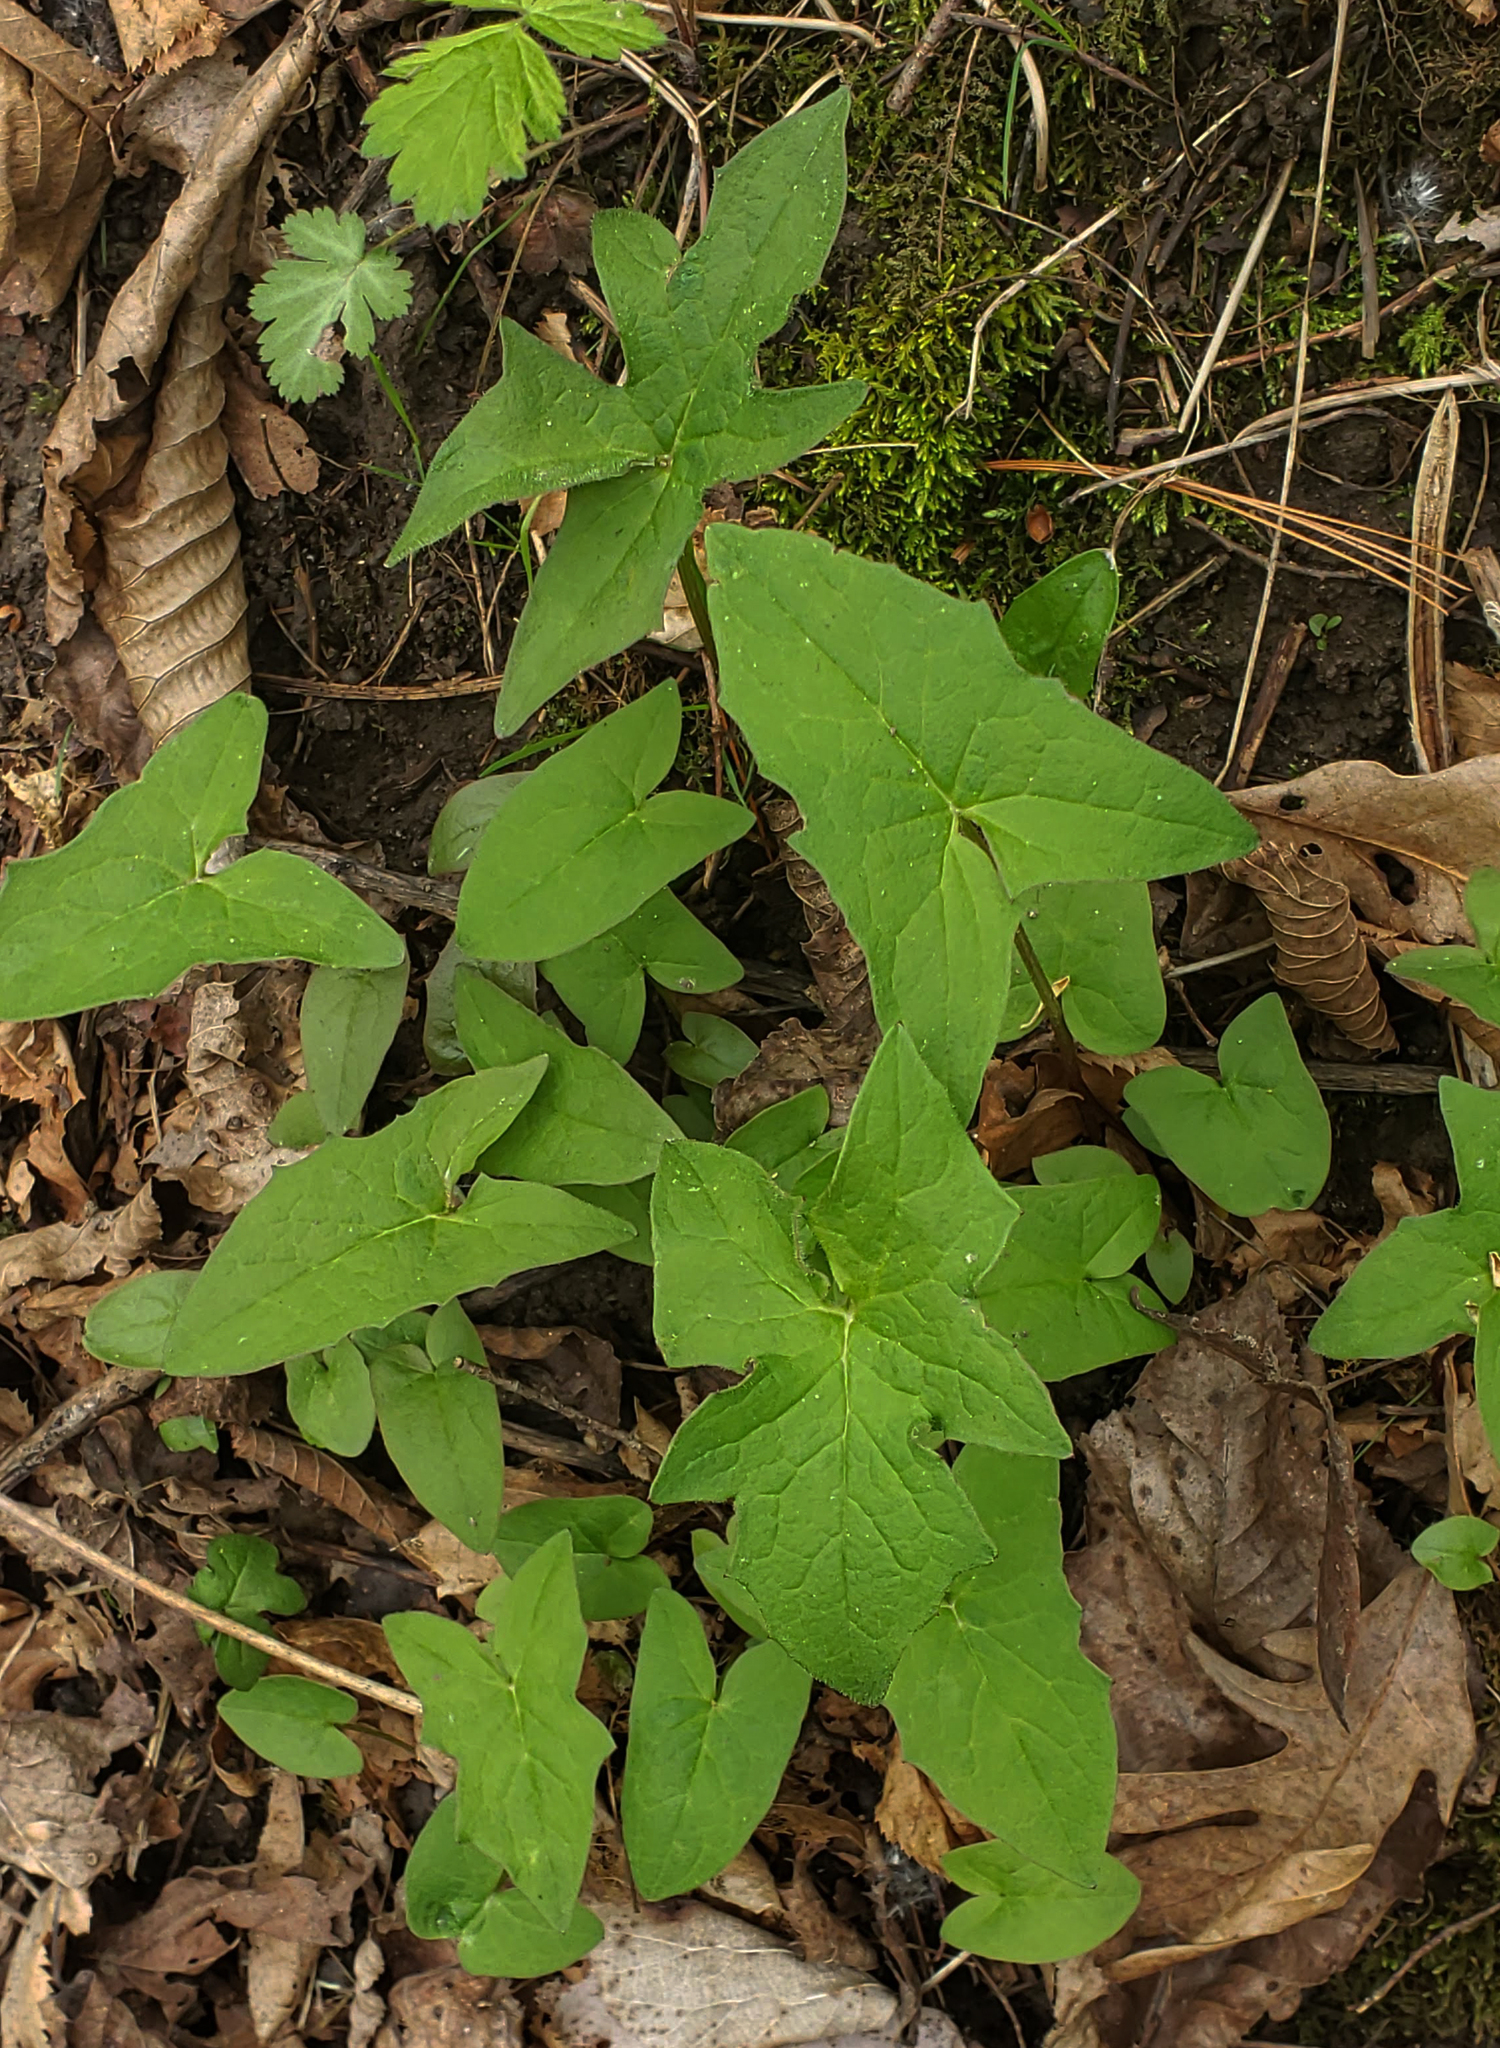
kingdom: Plantae
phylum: Tracheophyta
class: Magnoliopsida
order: Asterales
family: Asteraceae
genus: Nabalus
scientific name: Nabalus albus
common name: White rattlesnakeroot
